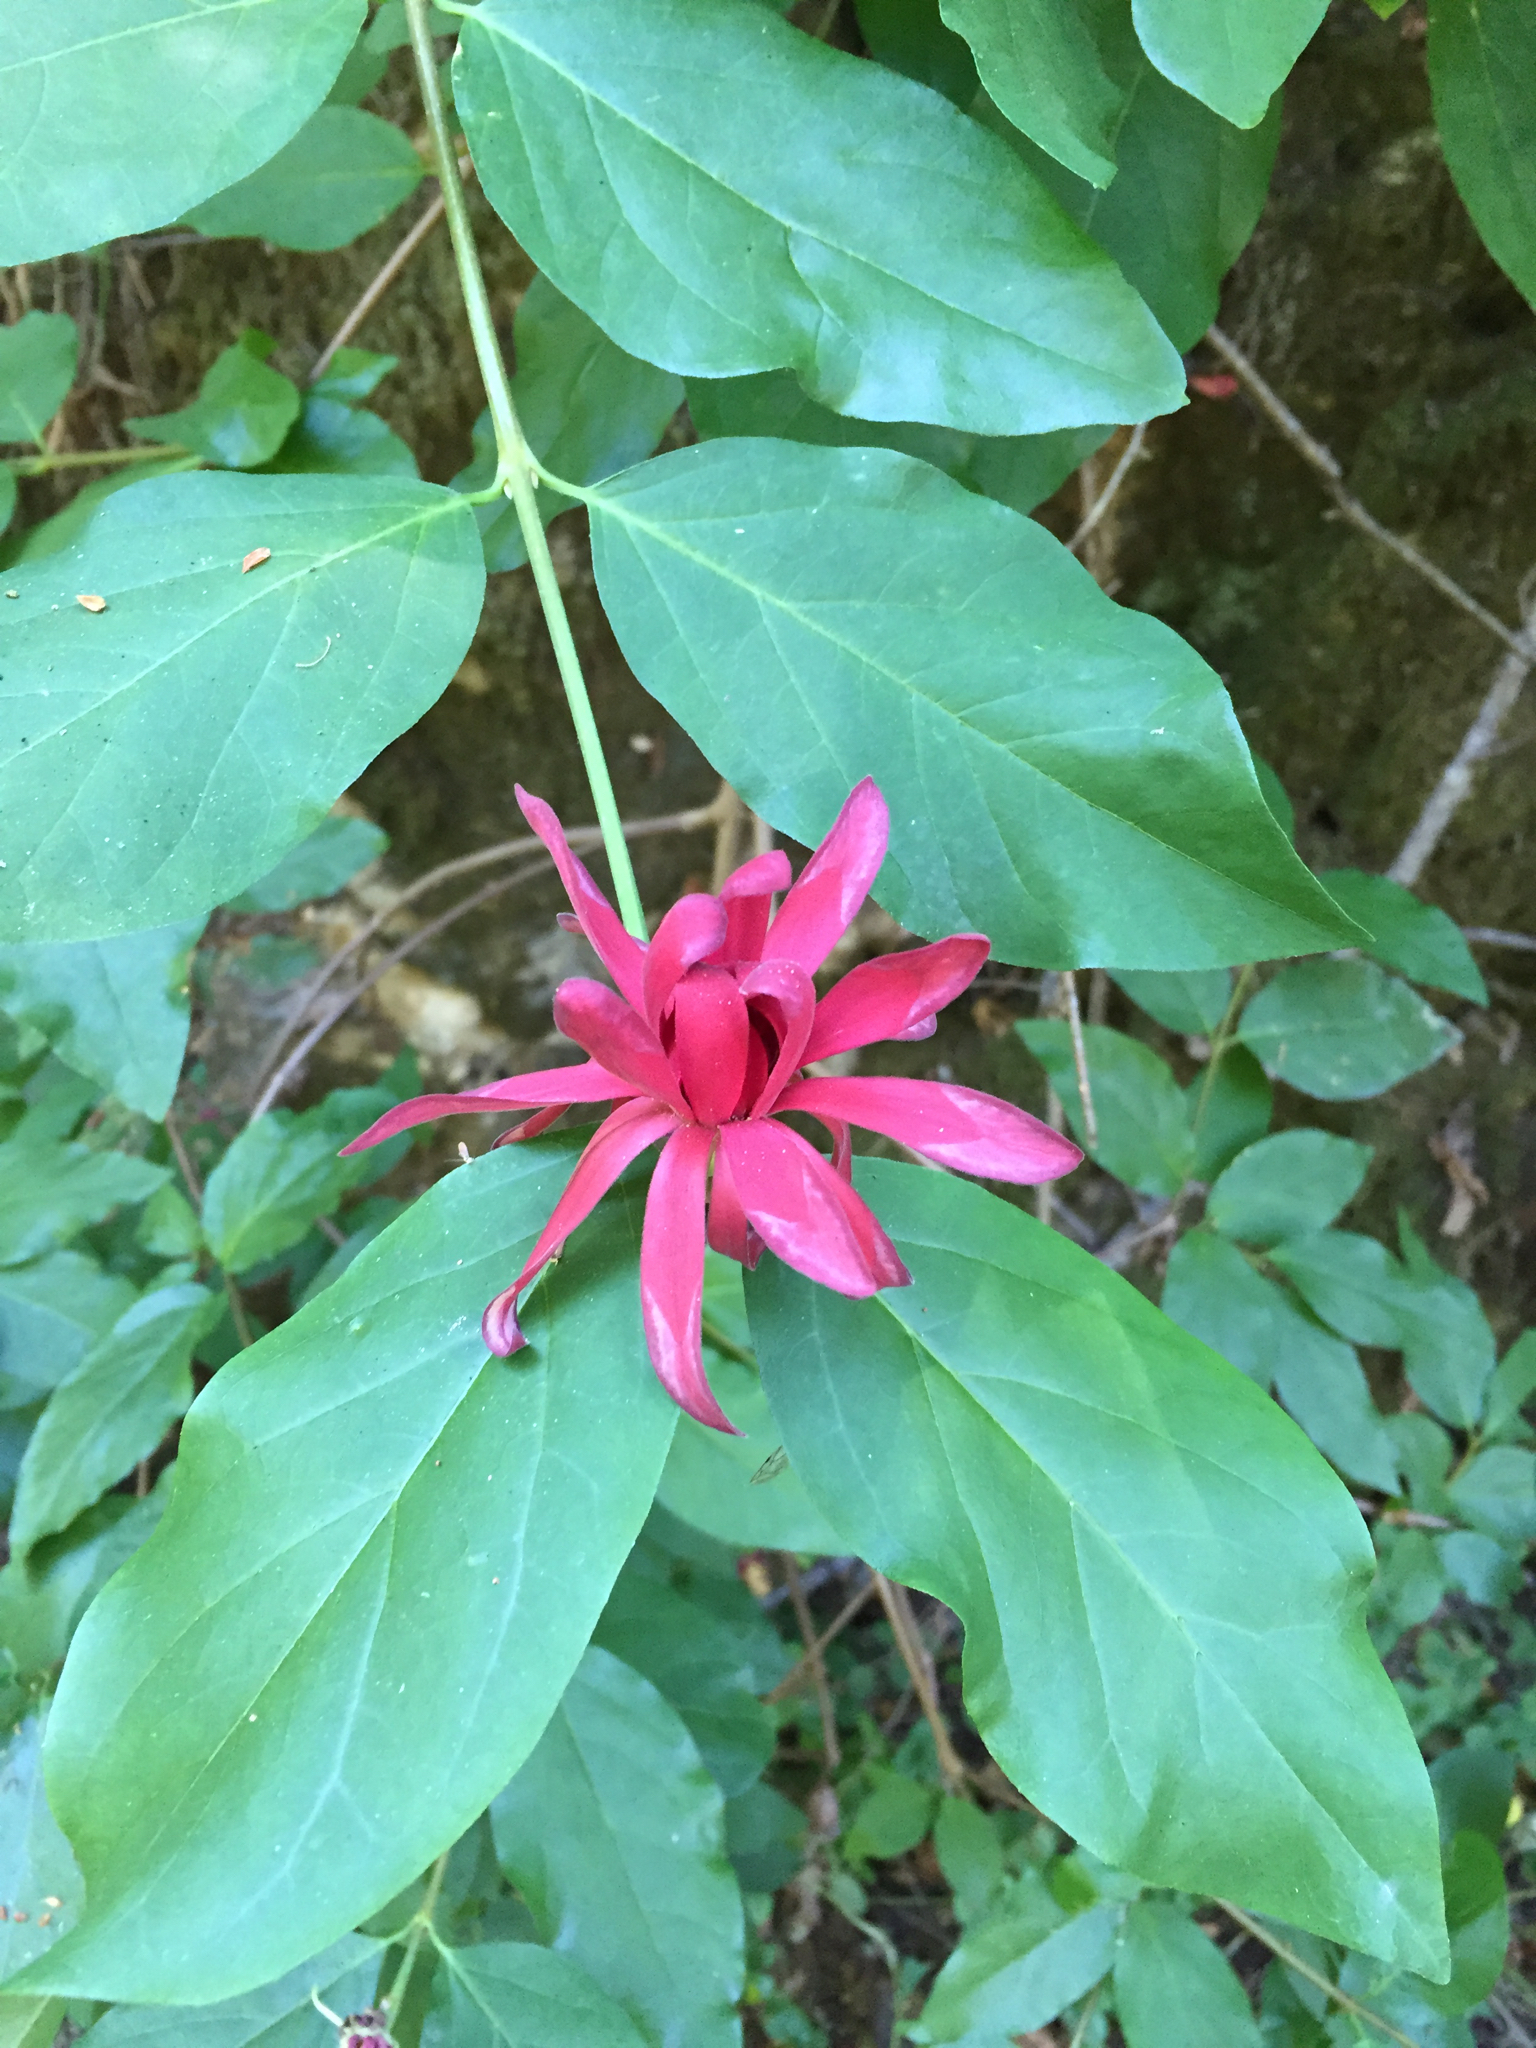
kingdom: Plantae
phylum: Tracheophyta
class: Magnoliopsida
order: Laurales
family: Calycanthaceae
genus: Calycanthus
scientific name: Calycanthus occidentalis
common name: California spicebush
